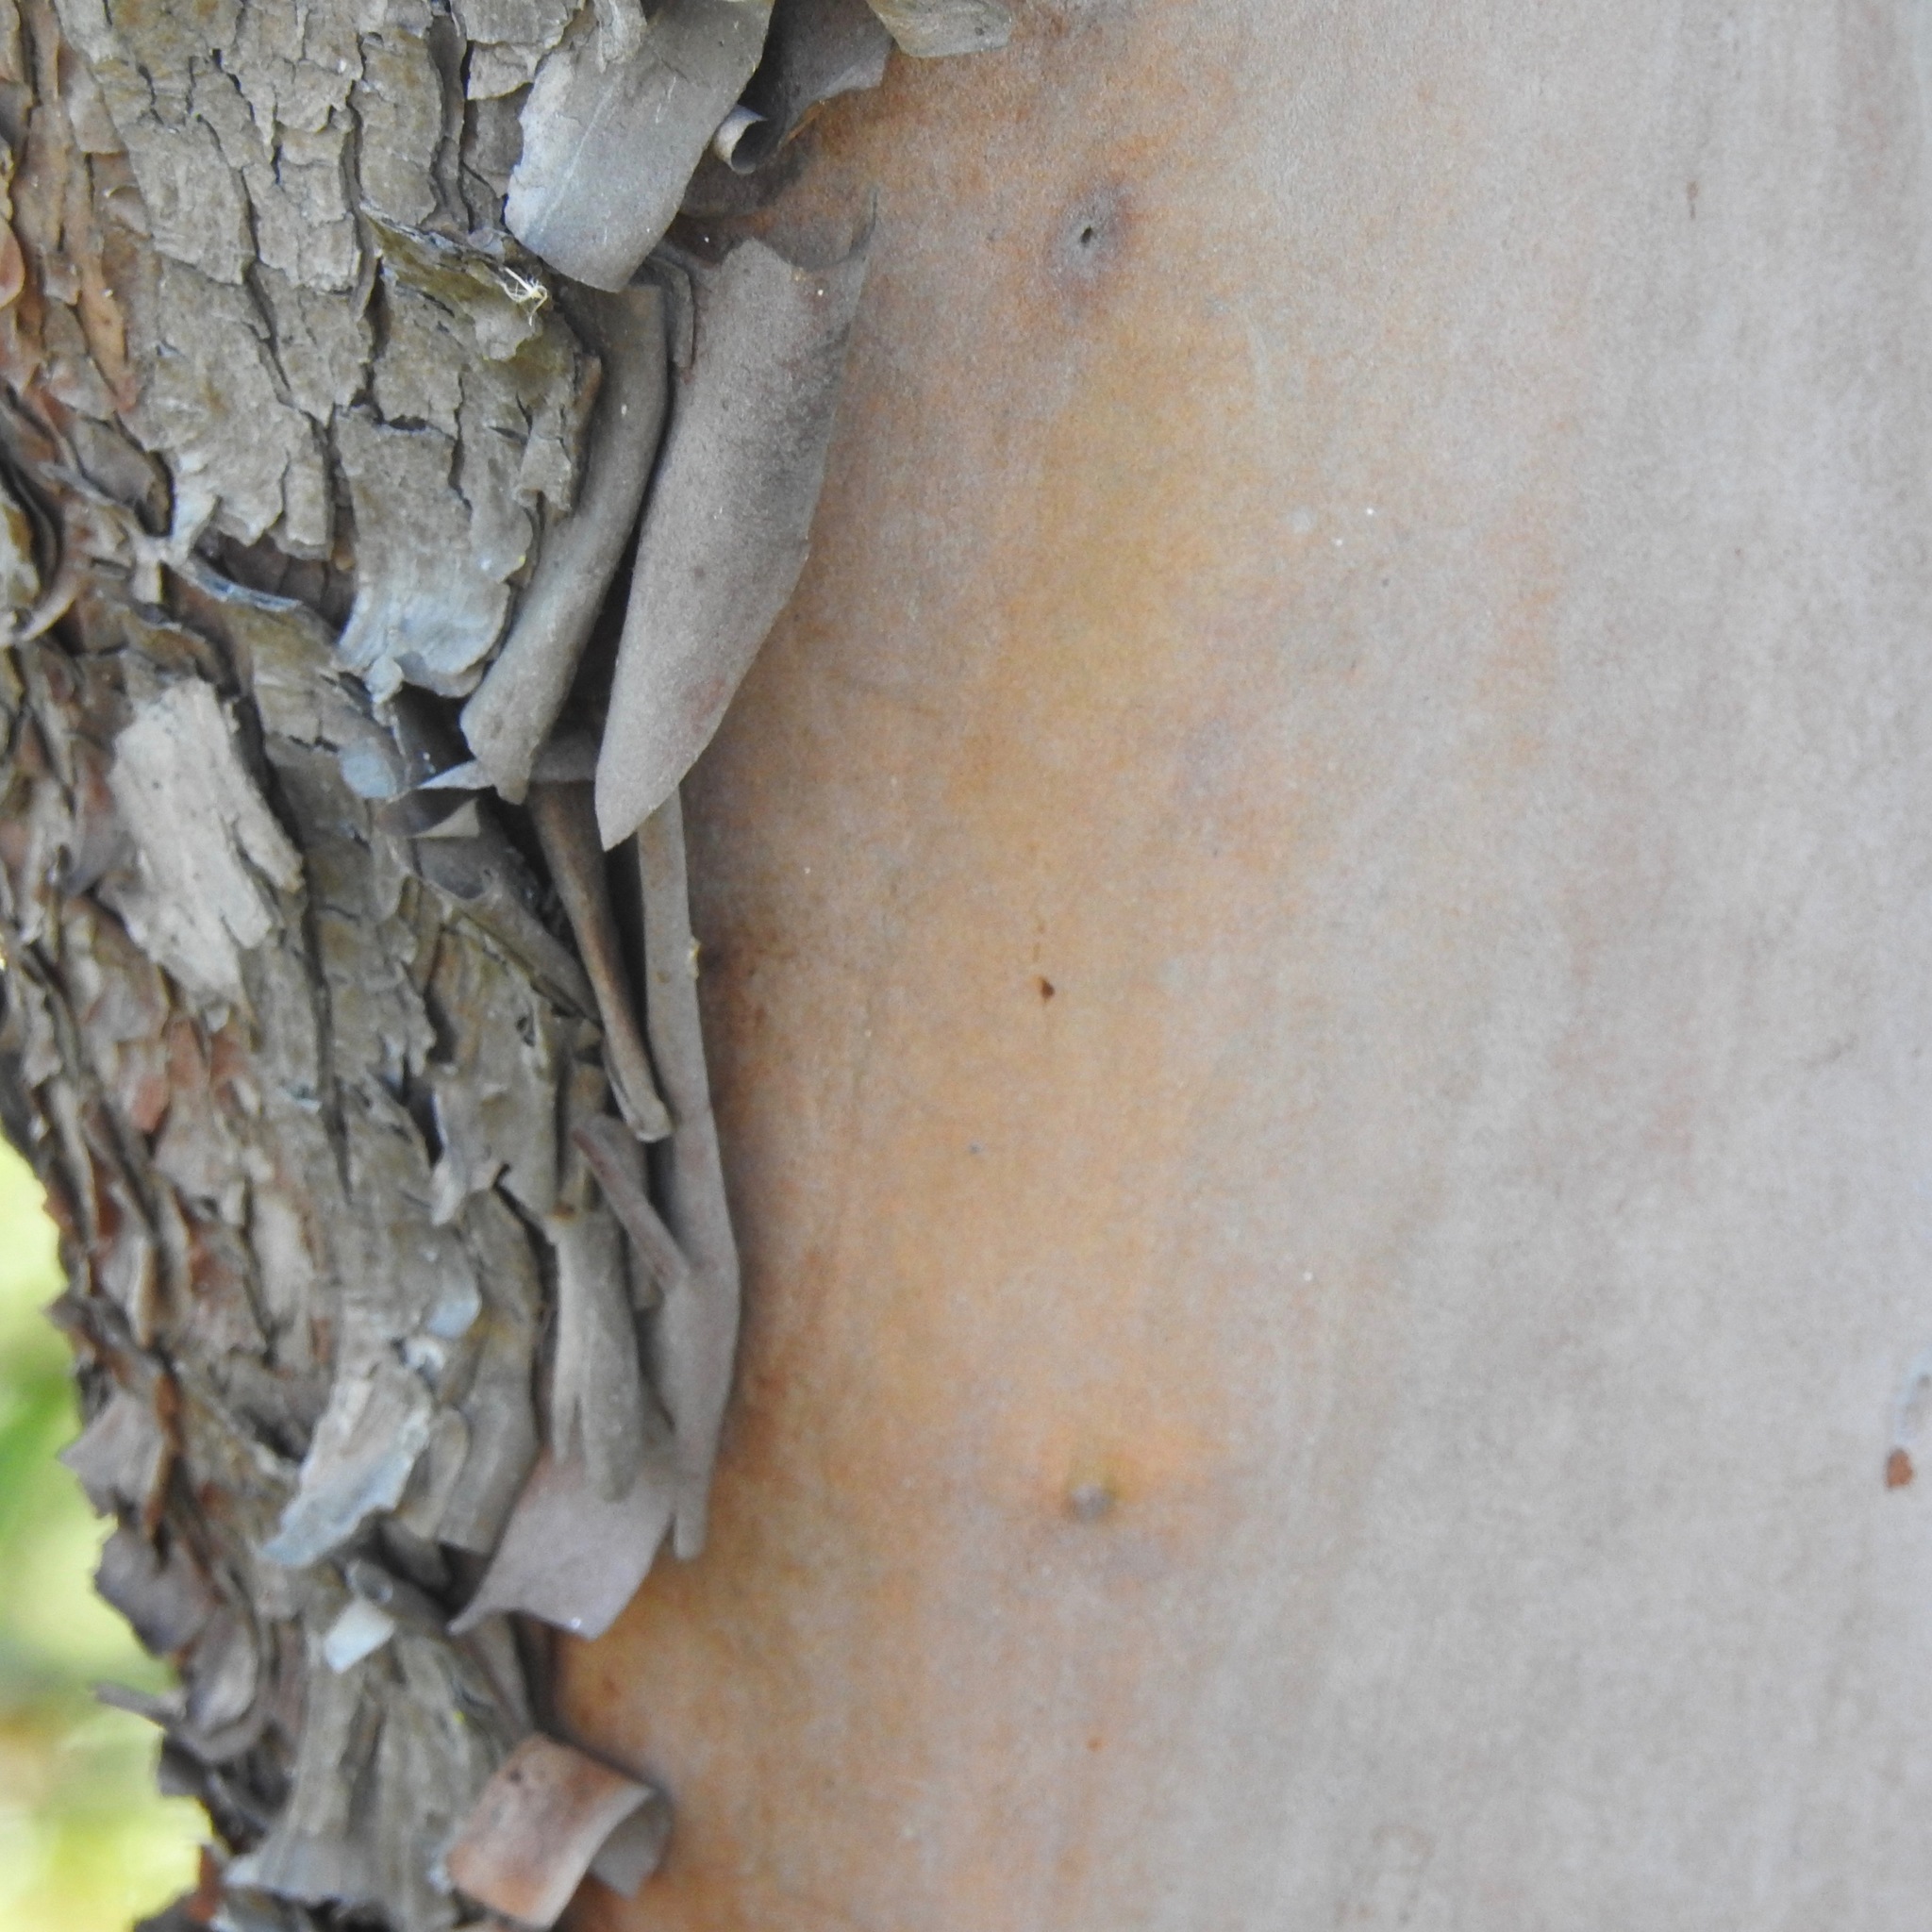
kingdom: Plantae
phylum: Tracheophyta
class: Magnoliopsida
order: Ericales
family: Ericaceae
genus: Arbutus
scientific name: Arbutus menziesii
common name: Pacific madrone
